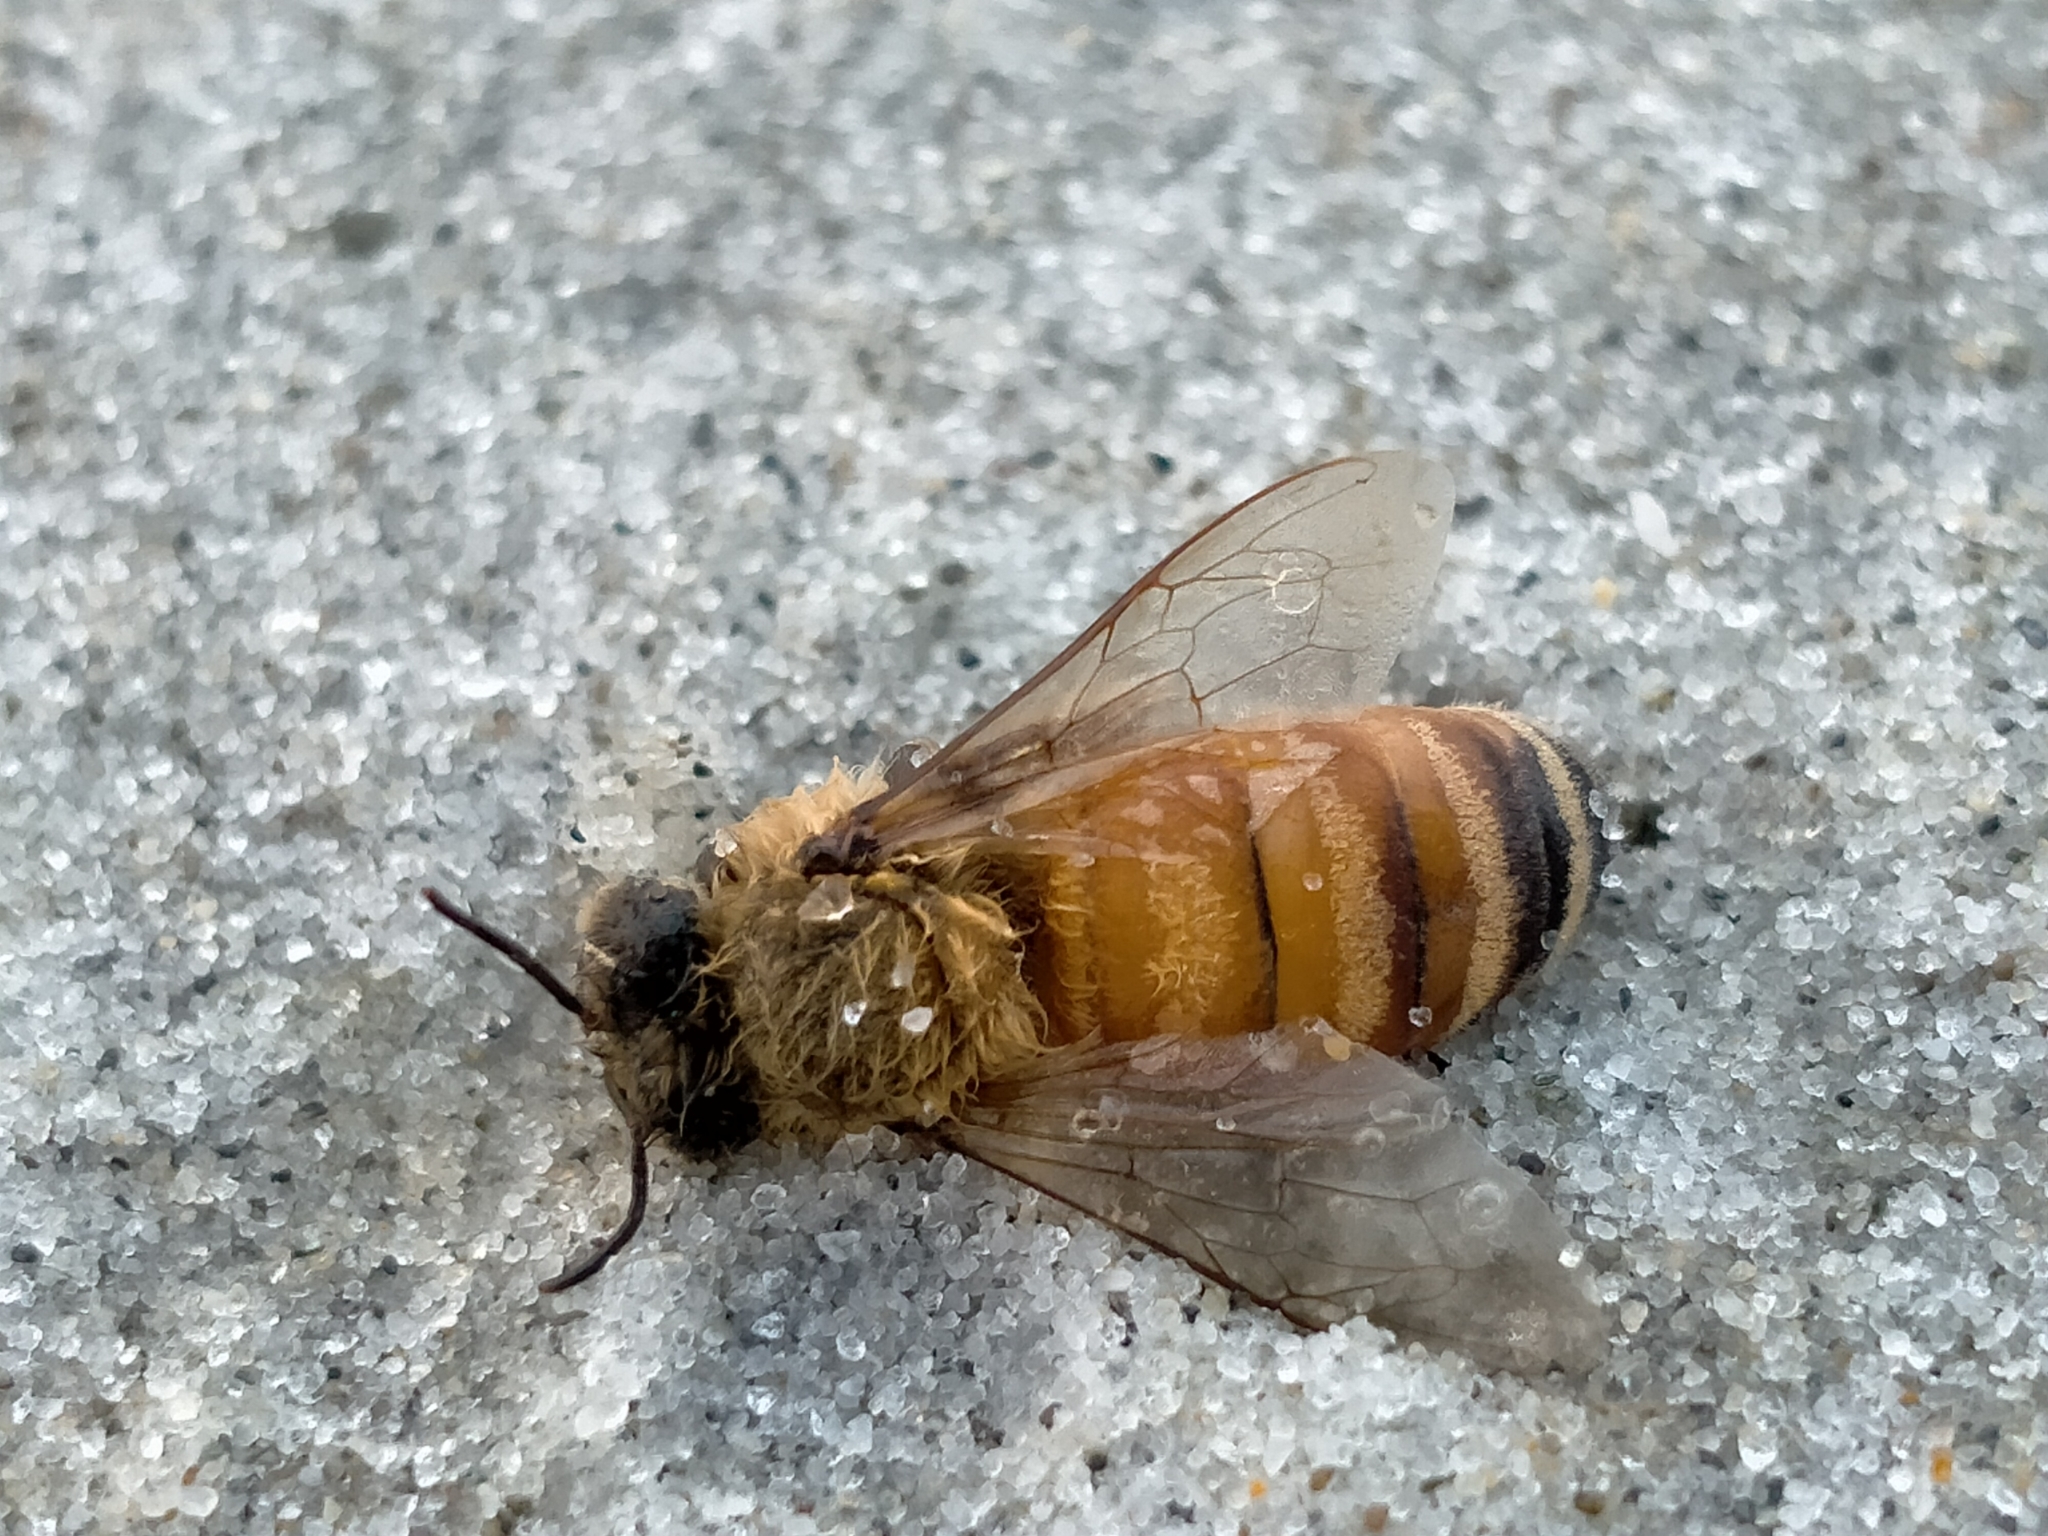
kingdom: Animalia
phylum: Arthropoda
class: Insecta
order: Hymenoptera
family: Apidae
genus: Apis
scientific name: Apis mellifera
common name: Honey bee
